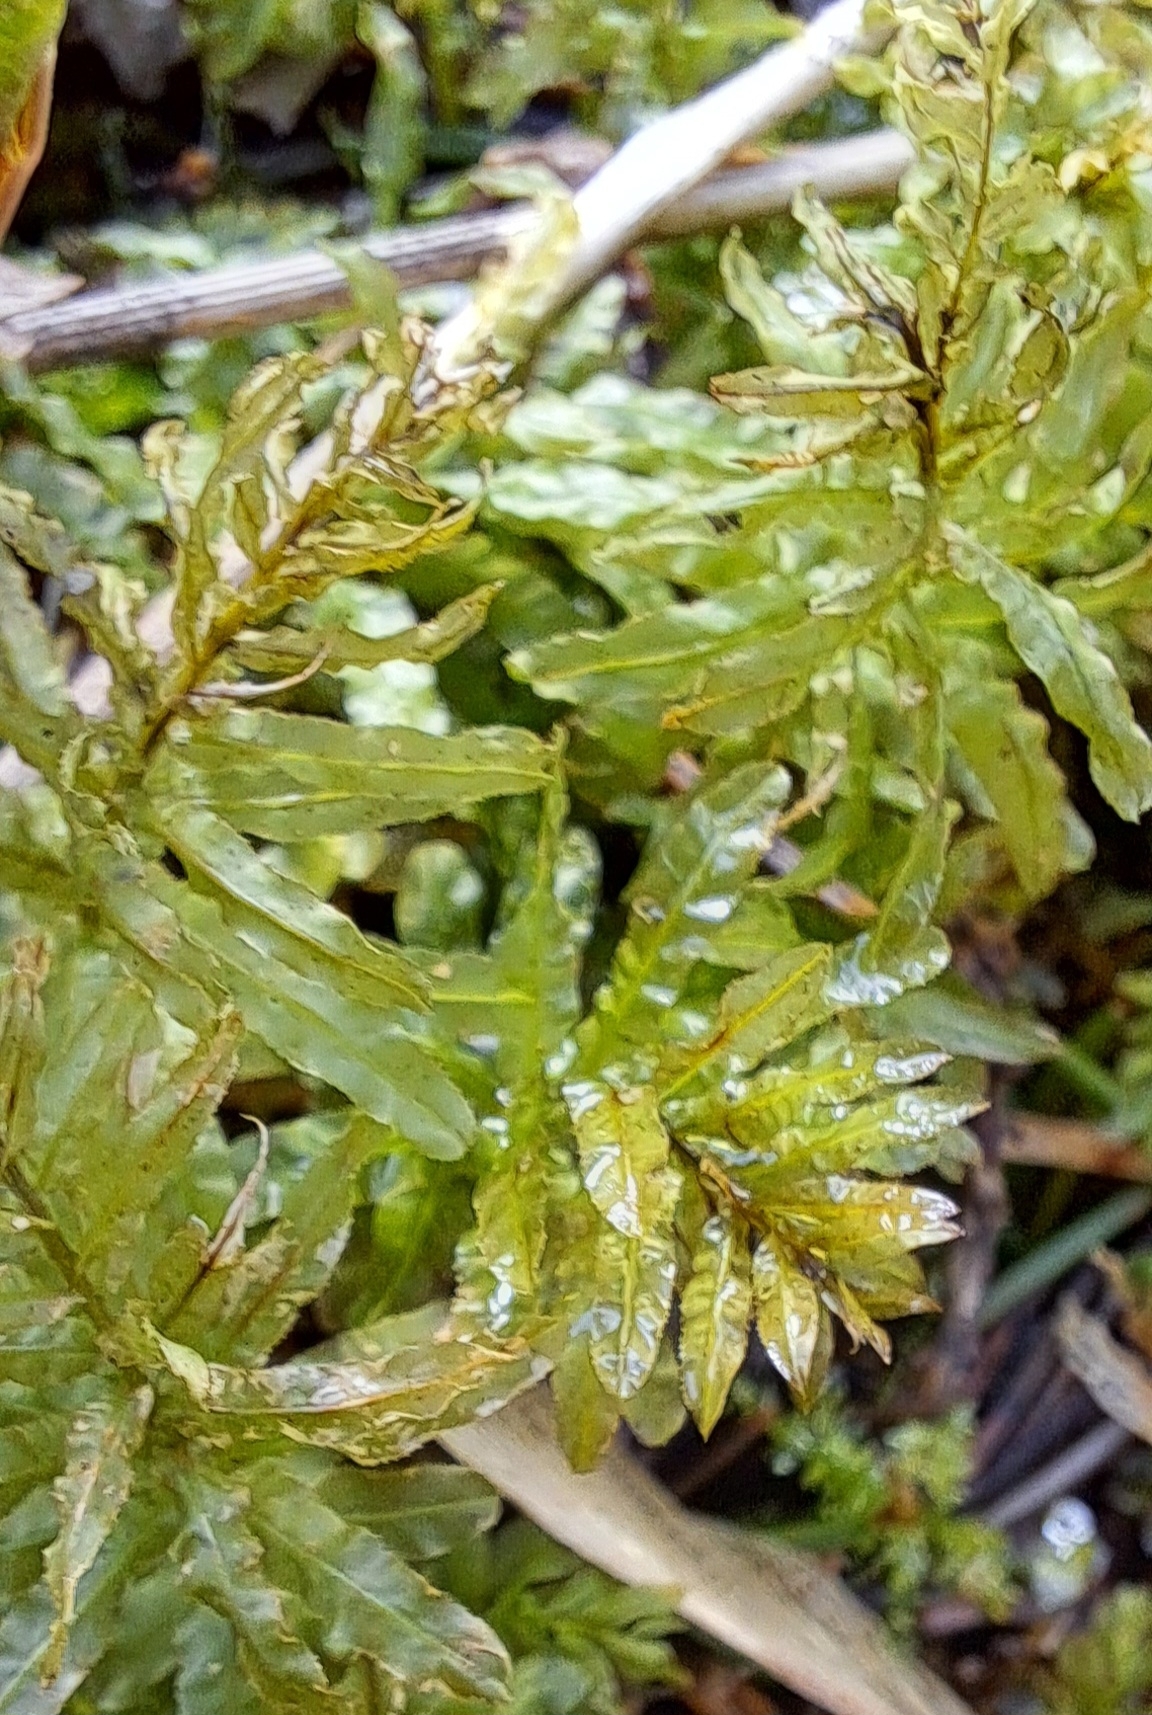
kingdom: Plantae
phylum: Bryophyta
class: Bryopsida
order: Bryales
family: Mniaceae
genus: Plagiomnium
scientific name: Plagiomnium undulatum
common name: Hart's-tongue thyme-moss
